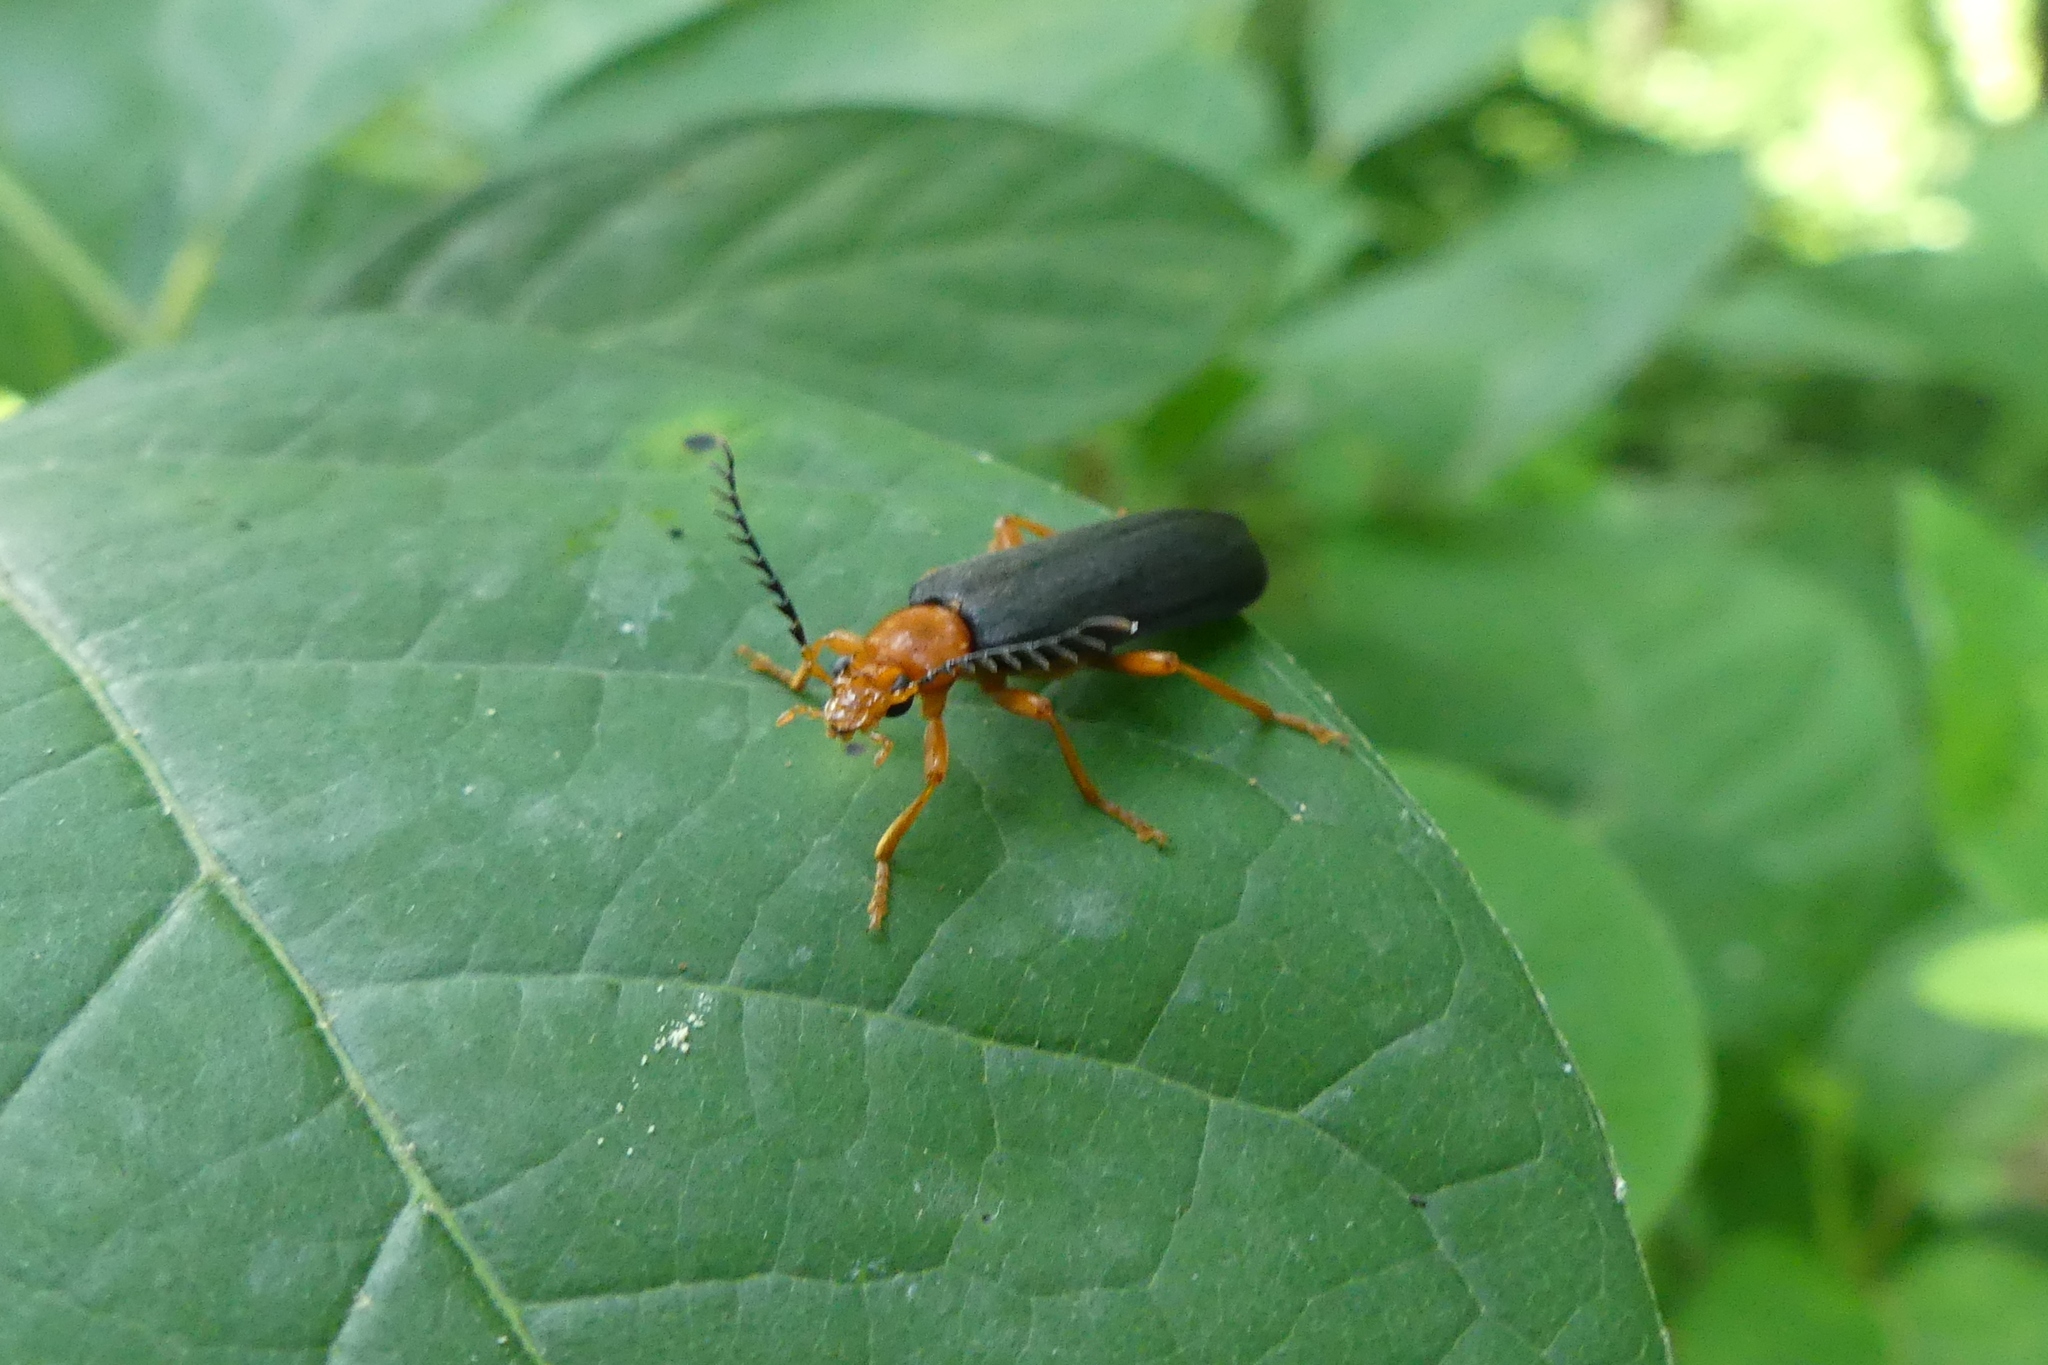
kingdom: Animalia
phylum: Arthropoda
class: Insecta
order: Coleoptera
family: Pyrochroidae
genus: Neopyrochroa
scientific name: Neopyrochroa flabellata
